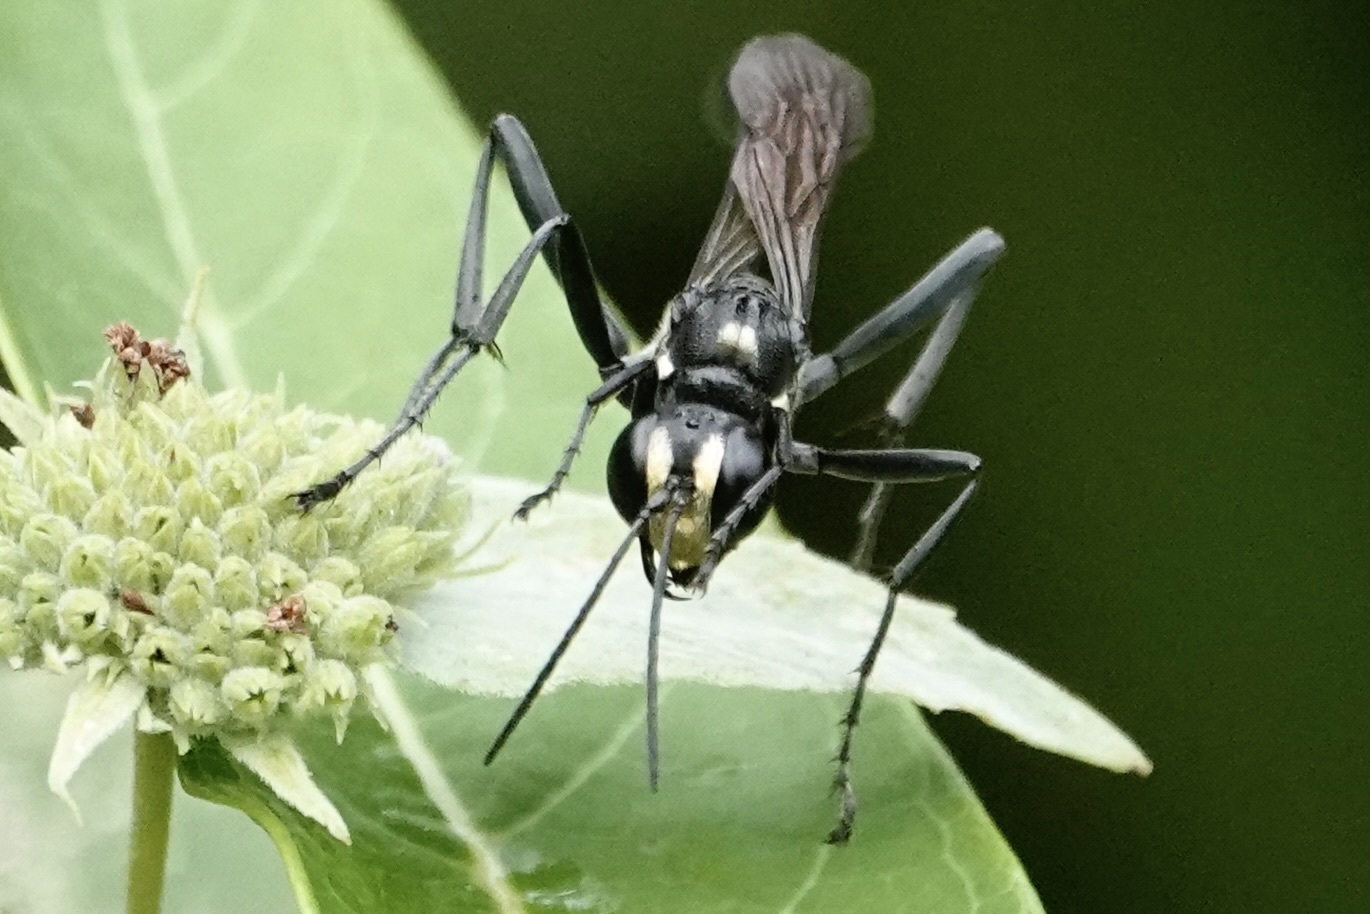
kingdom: Animalia
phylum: Arthropoda
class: Insecta
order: Hymenoptera
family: Sphecidae
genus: Eremnophila
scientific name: Eremnophila aureonotata
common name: Gold-marked thread-waisted wasp
